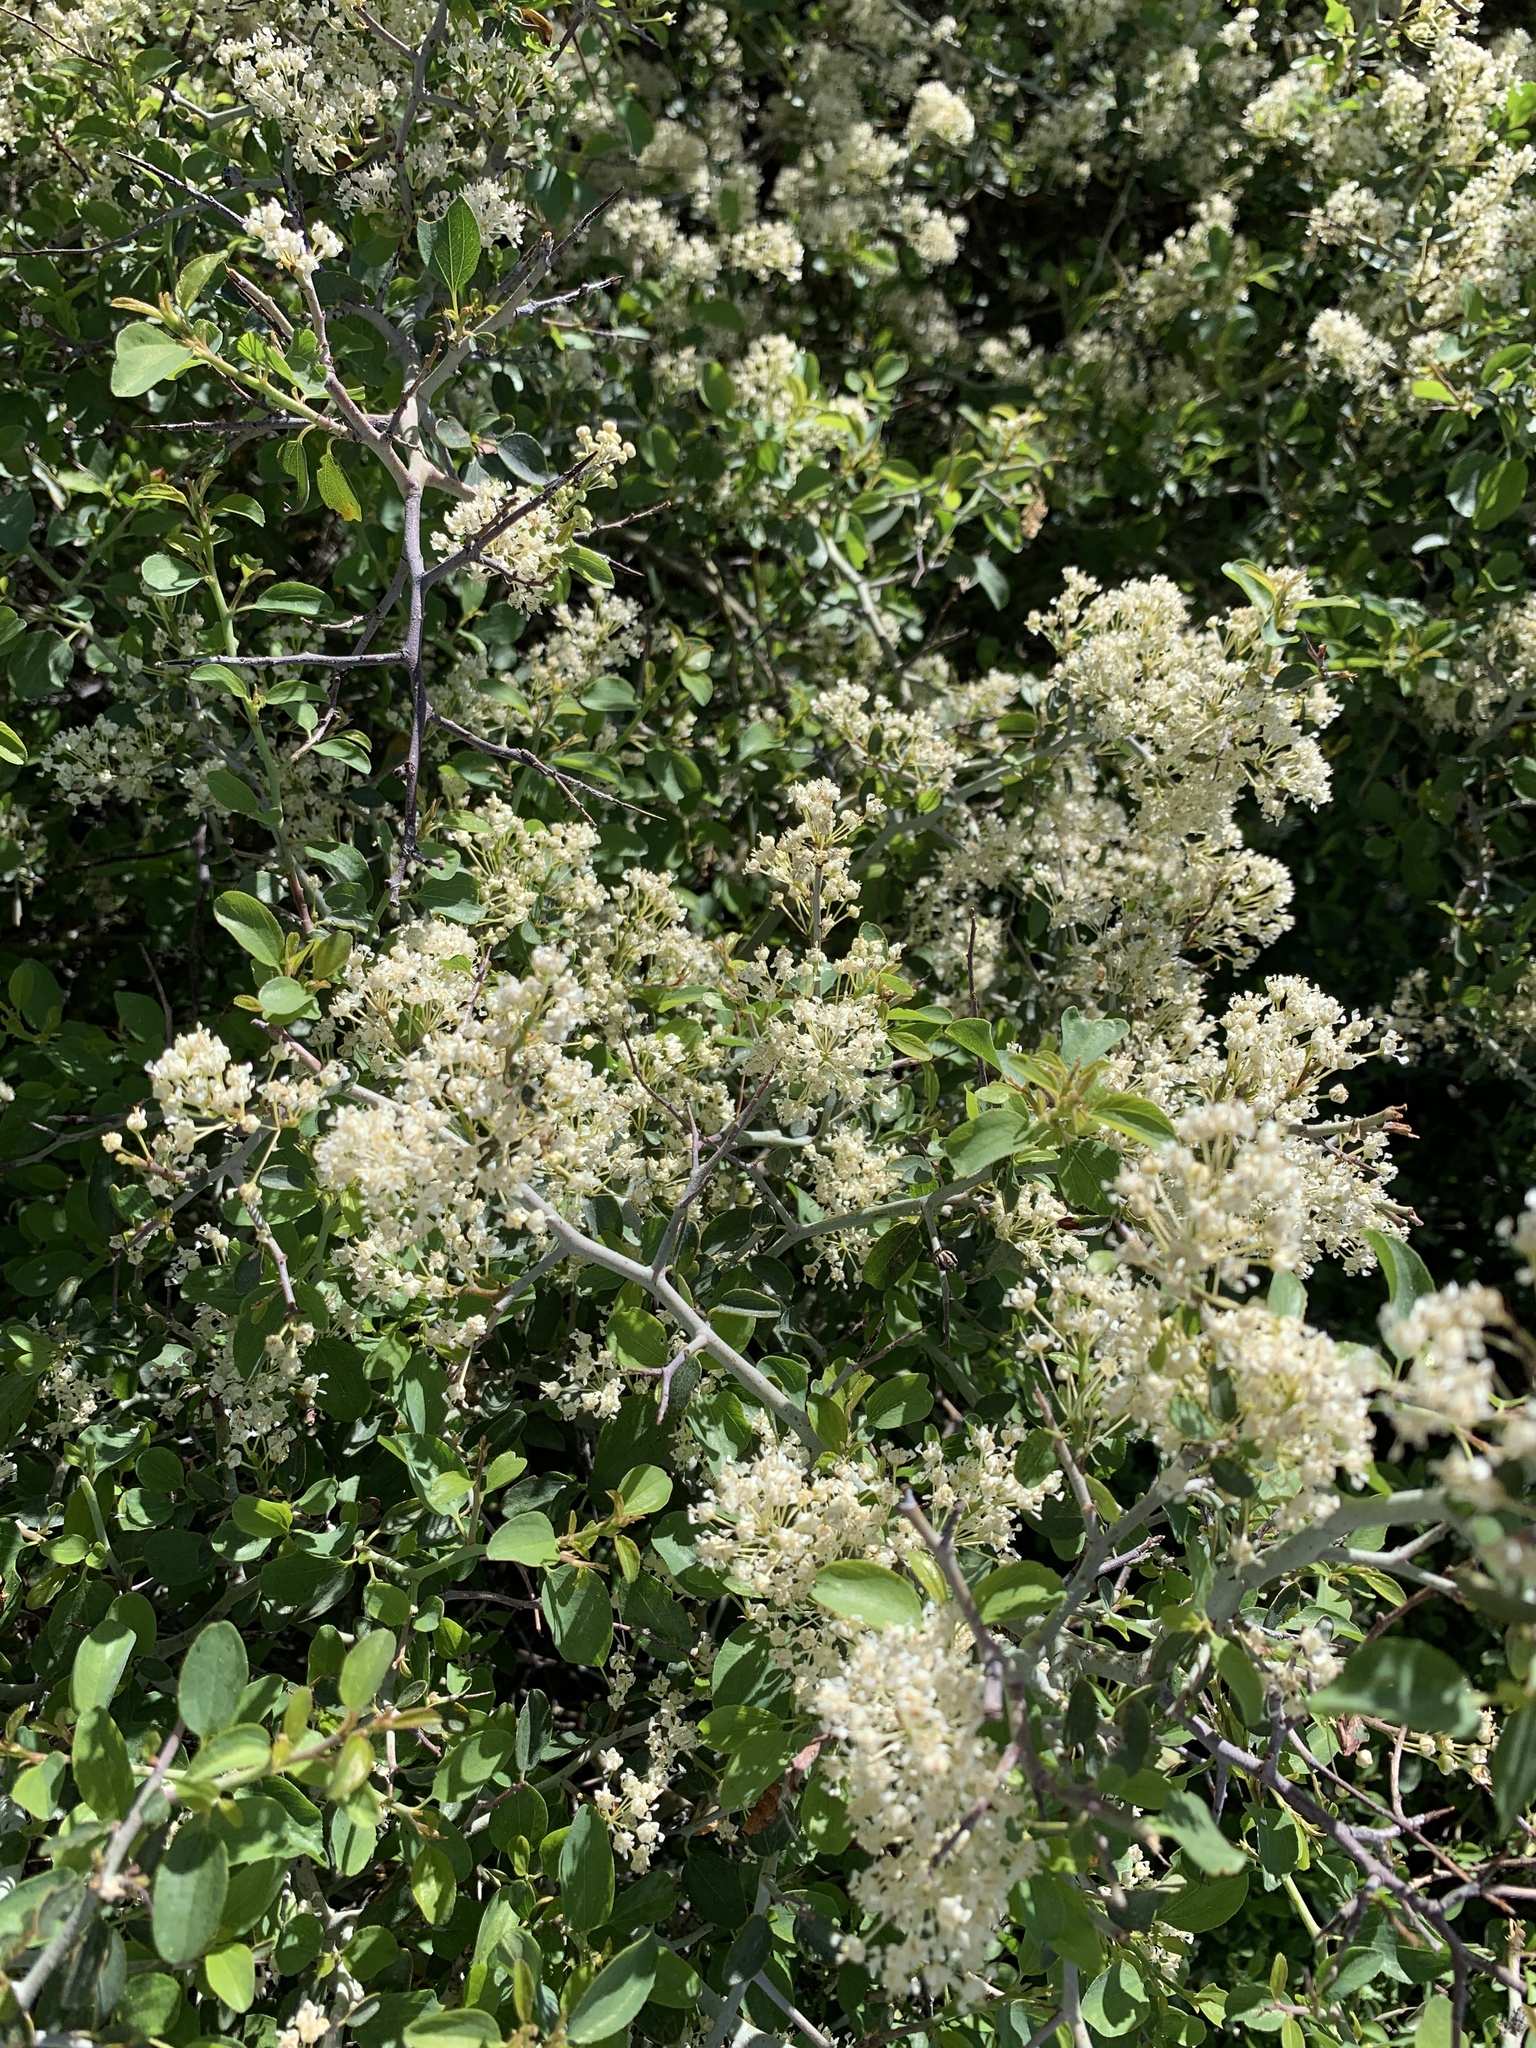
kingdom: Plantae
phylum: Tracheophyta
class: Magnoliopsida
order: Rosales
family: Rhamnaceae
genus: Ceanothus
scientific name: Ceanothus cordulatus
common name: Mountain whitethorn
